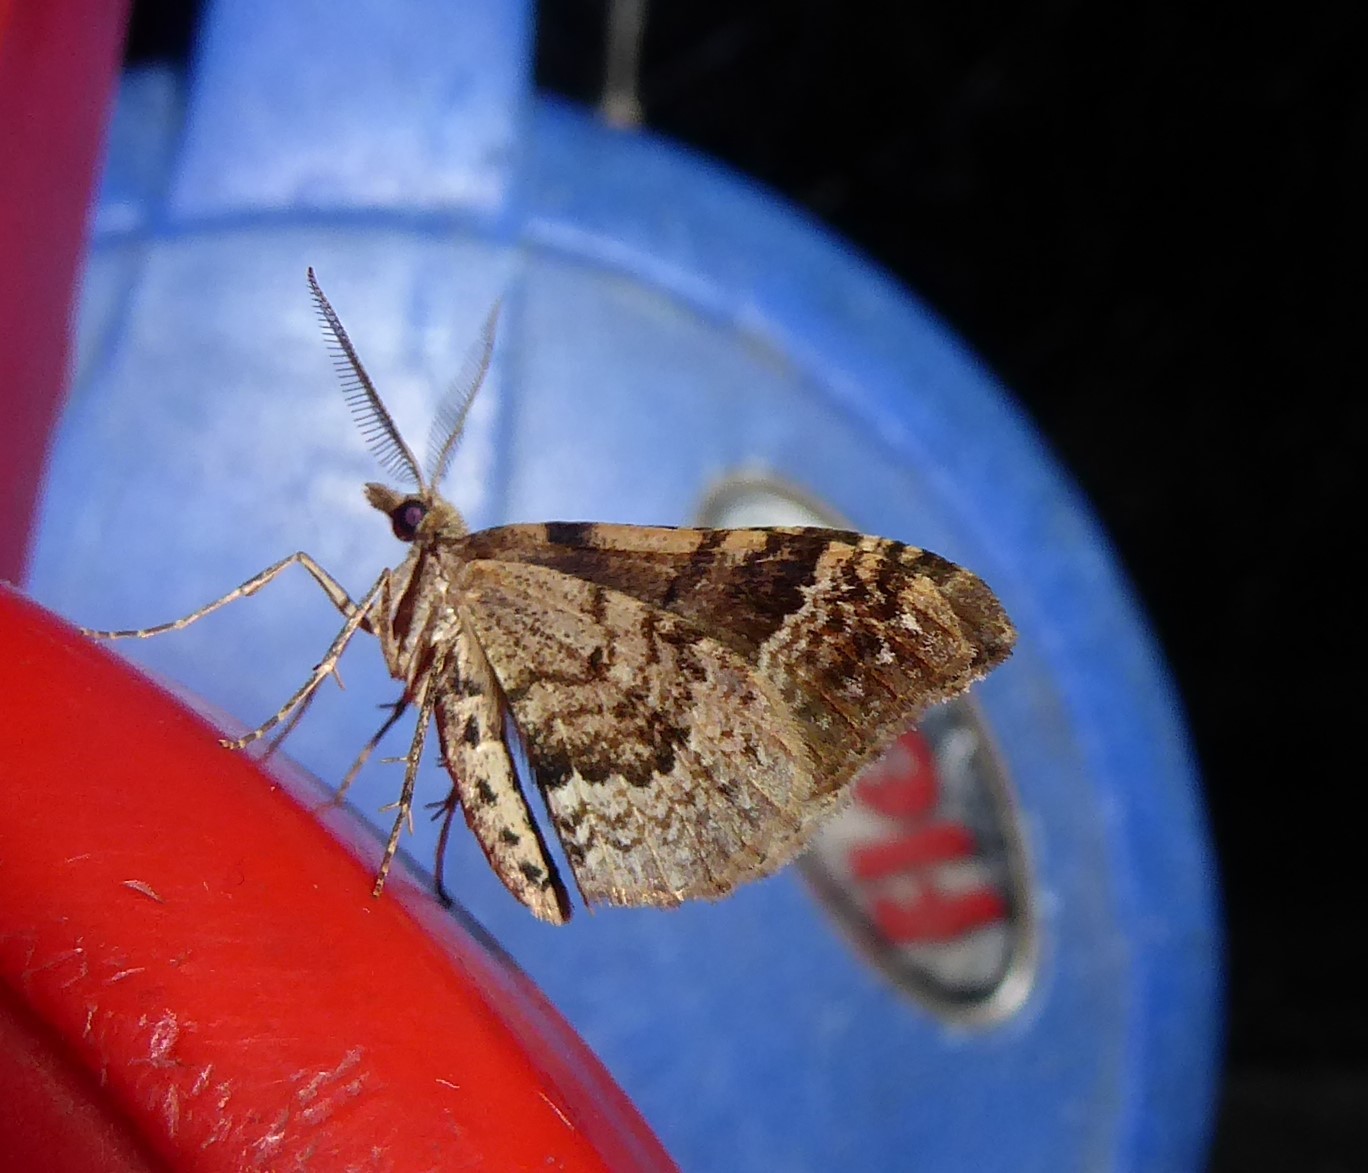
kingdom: Animalia
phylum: Arthropoda
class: Insecta
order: Lepidoptera
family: Geometridae
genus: Xanthorhoe
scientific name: Xanthorhoe semifissata
